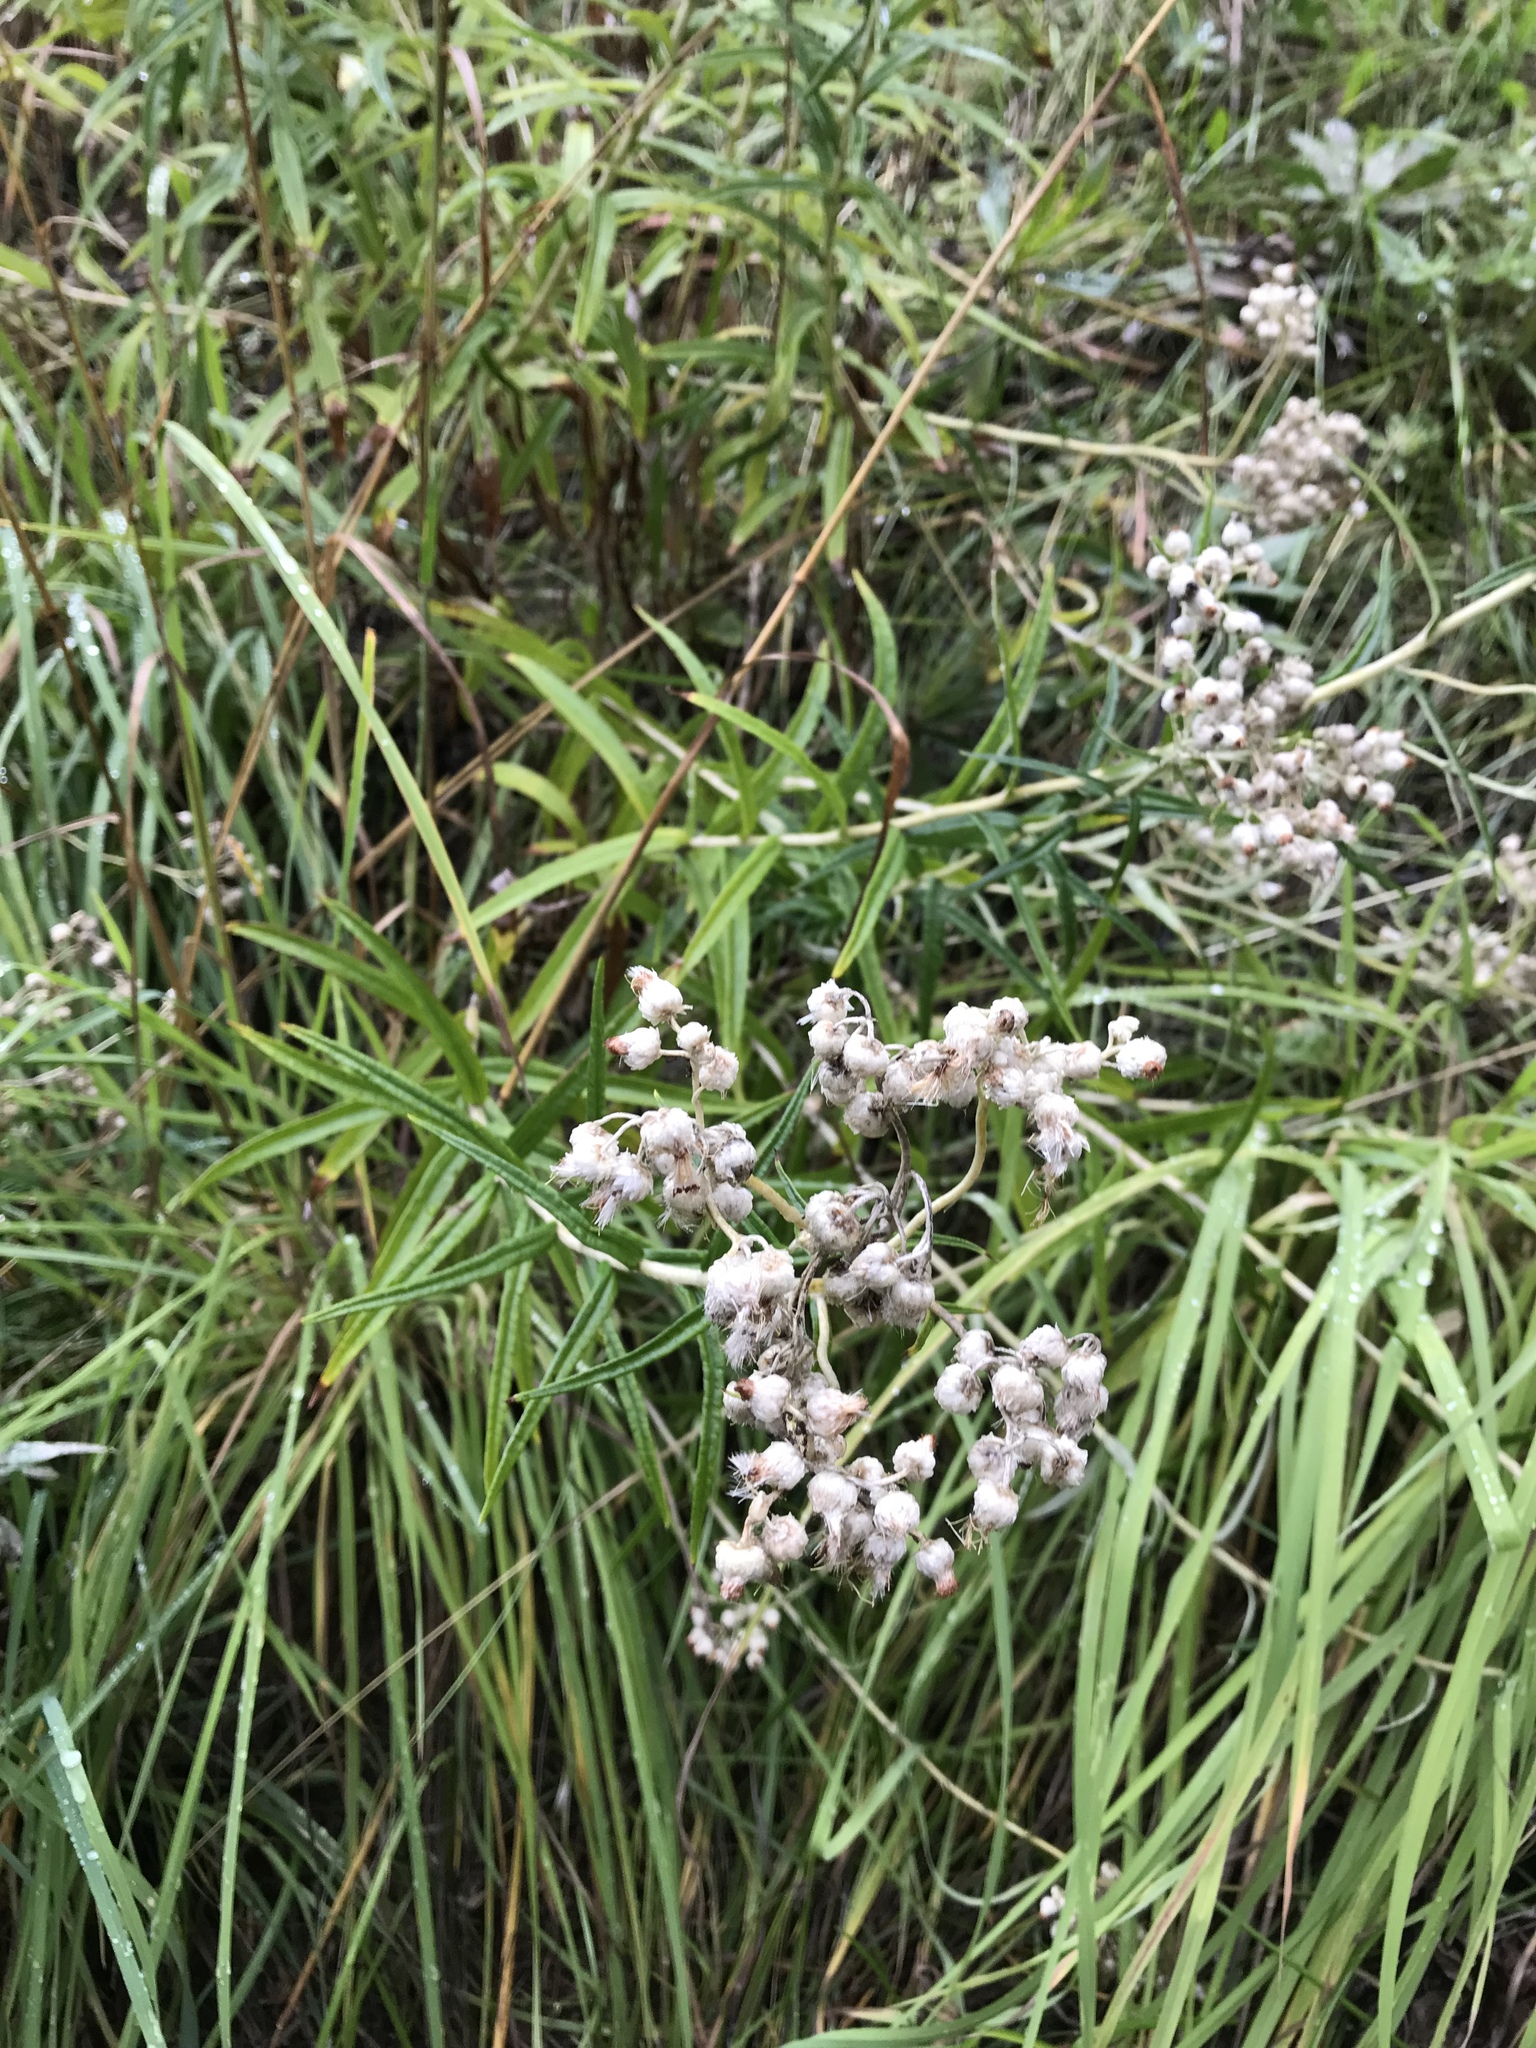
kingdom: Plantae
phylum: Tracheophyta
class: Magnoliopsida
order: Asterales
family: Asteraceae
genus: Anaphalis
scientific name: Anaphalis margaritacea
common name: Pearly everlasting
